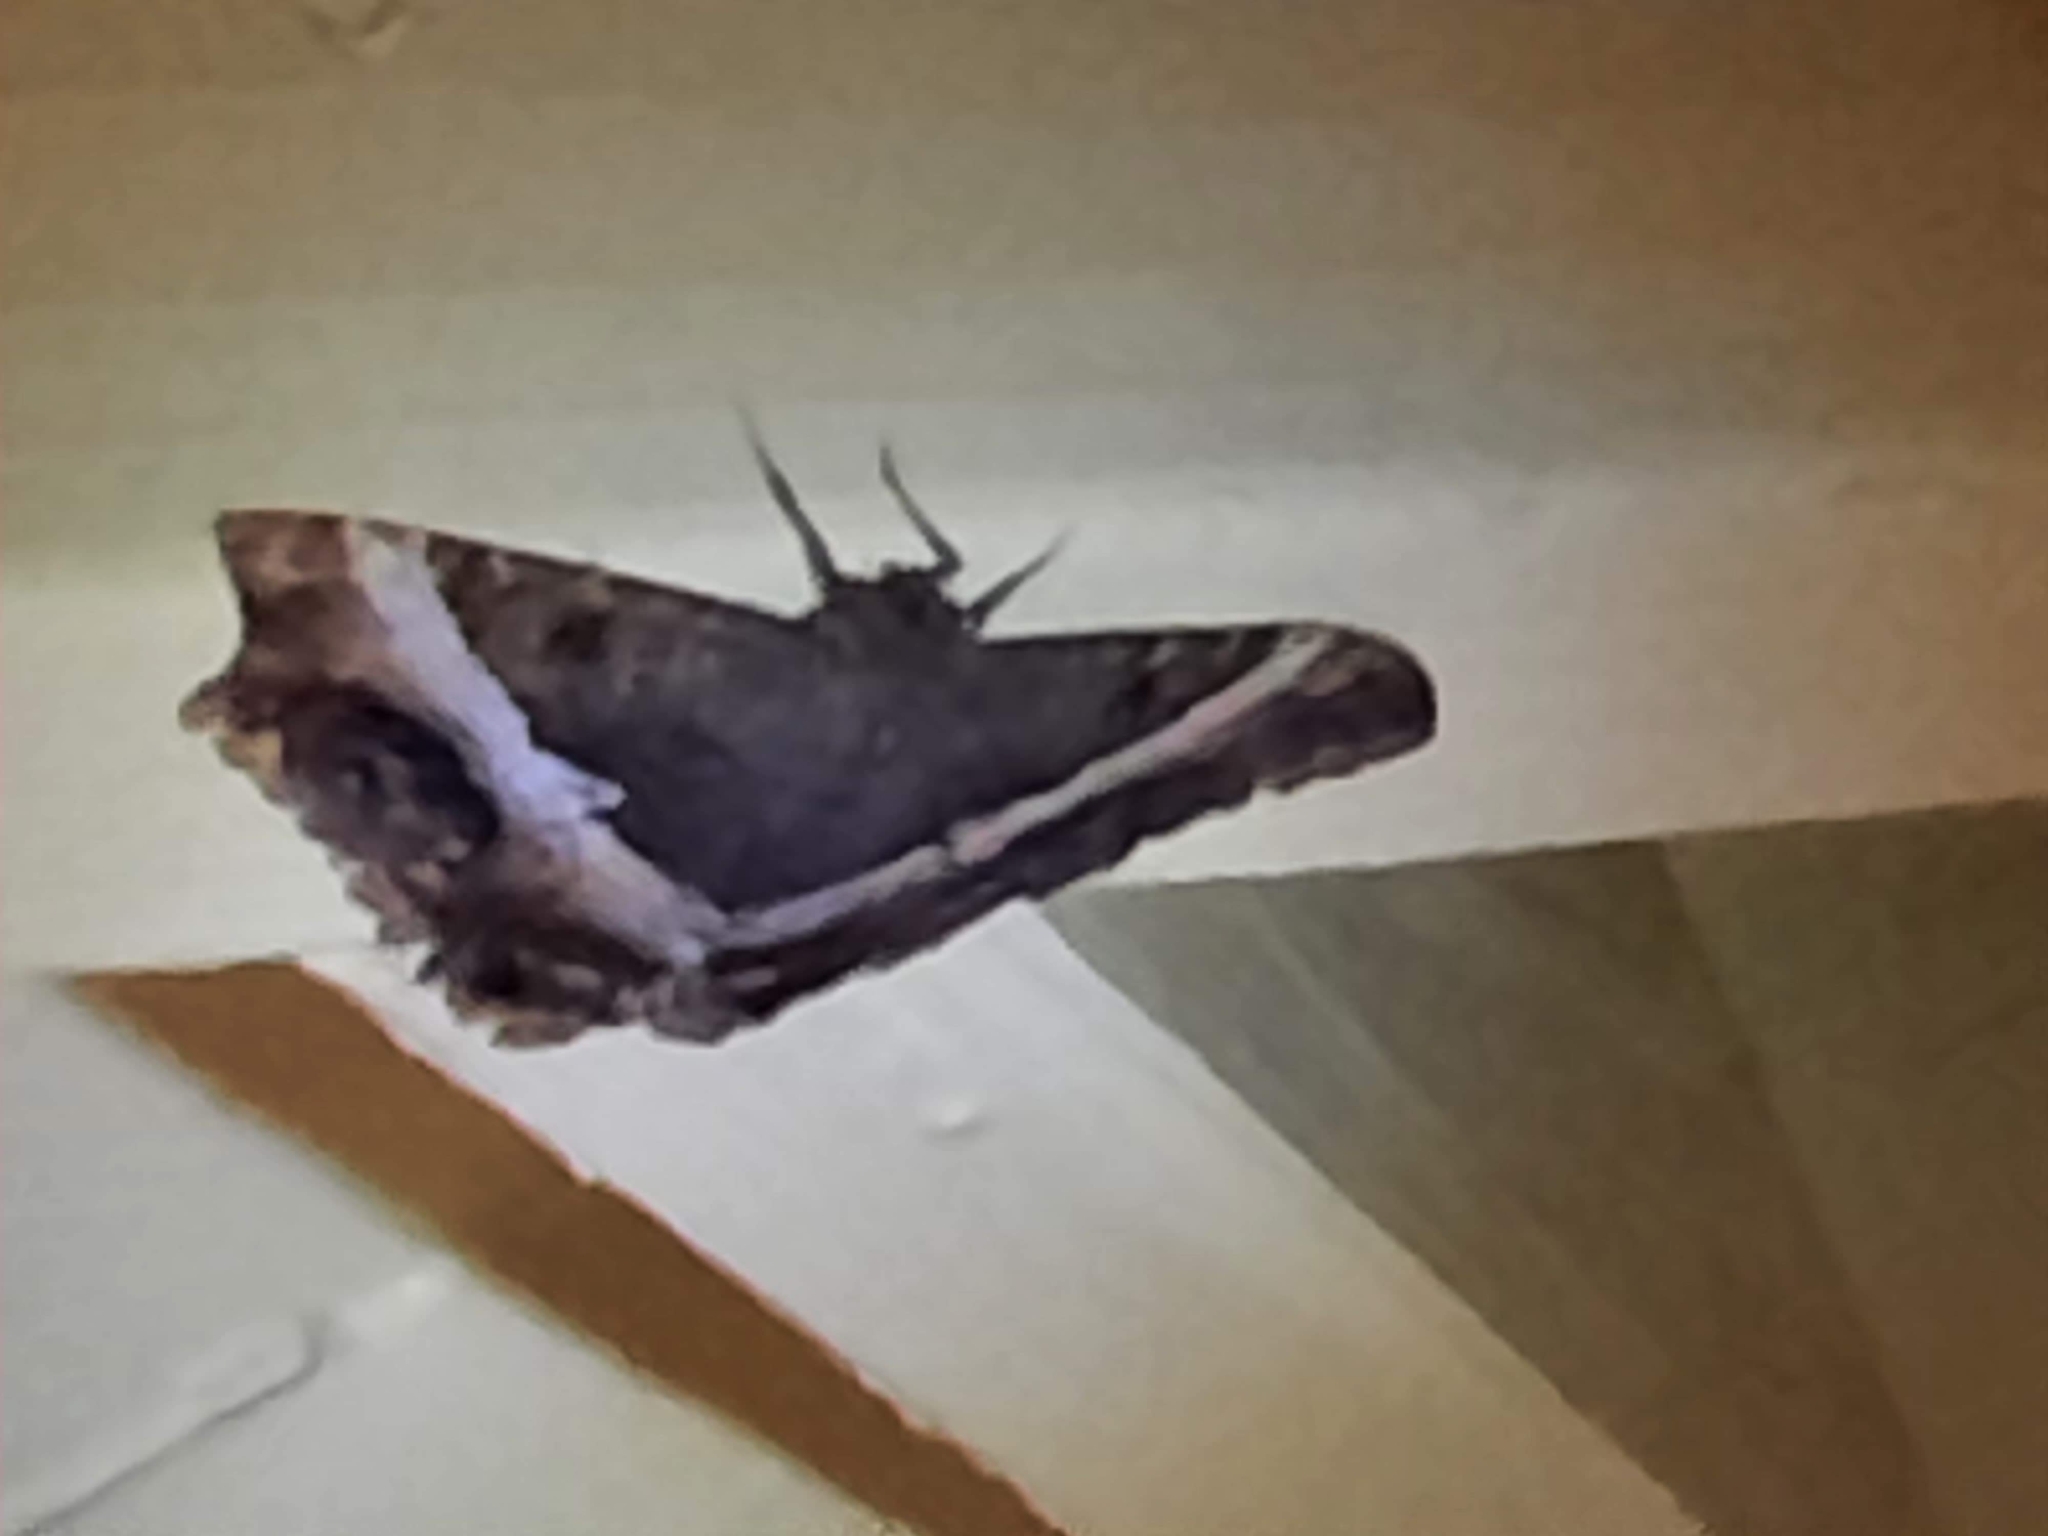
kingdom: Animalia
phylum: Arthropoda
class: Insecta
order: Lepidoptera
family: Erebidae
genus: Ascalapha
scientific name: Ascalapha odorata
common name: Black witch
